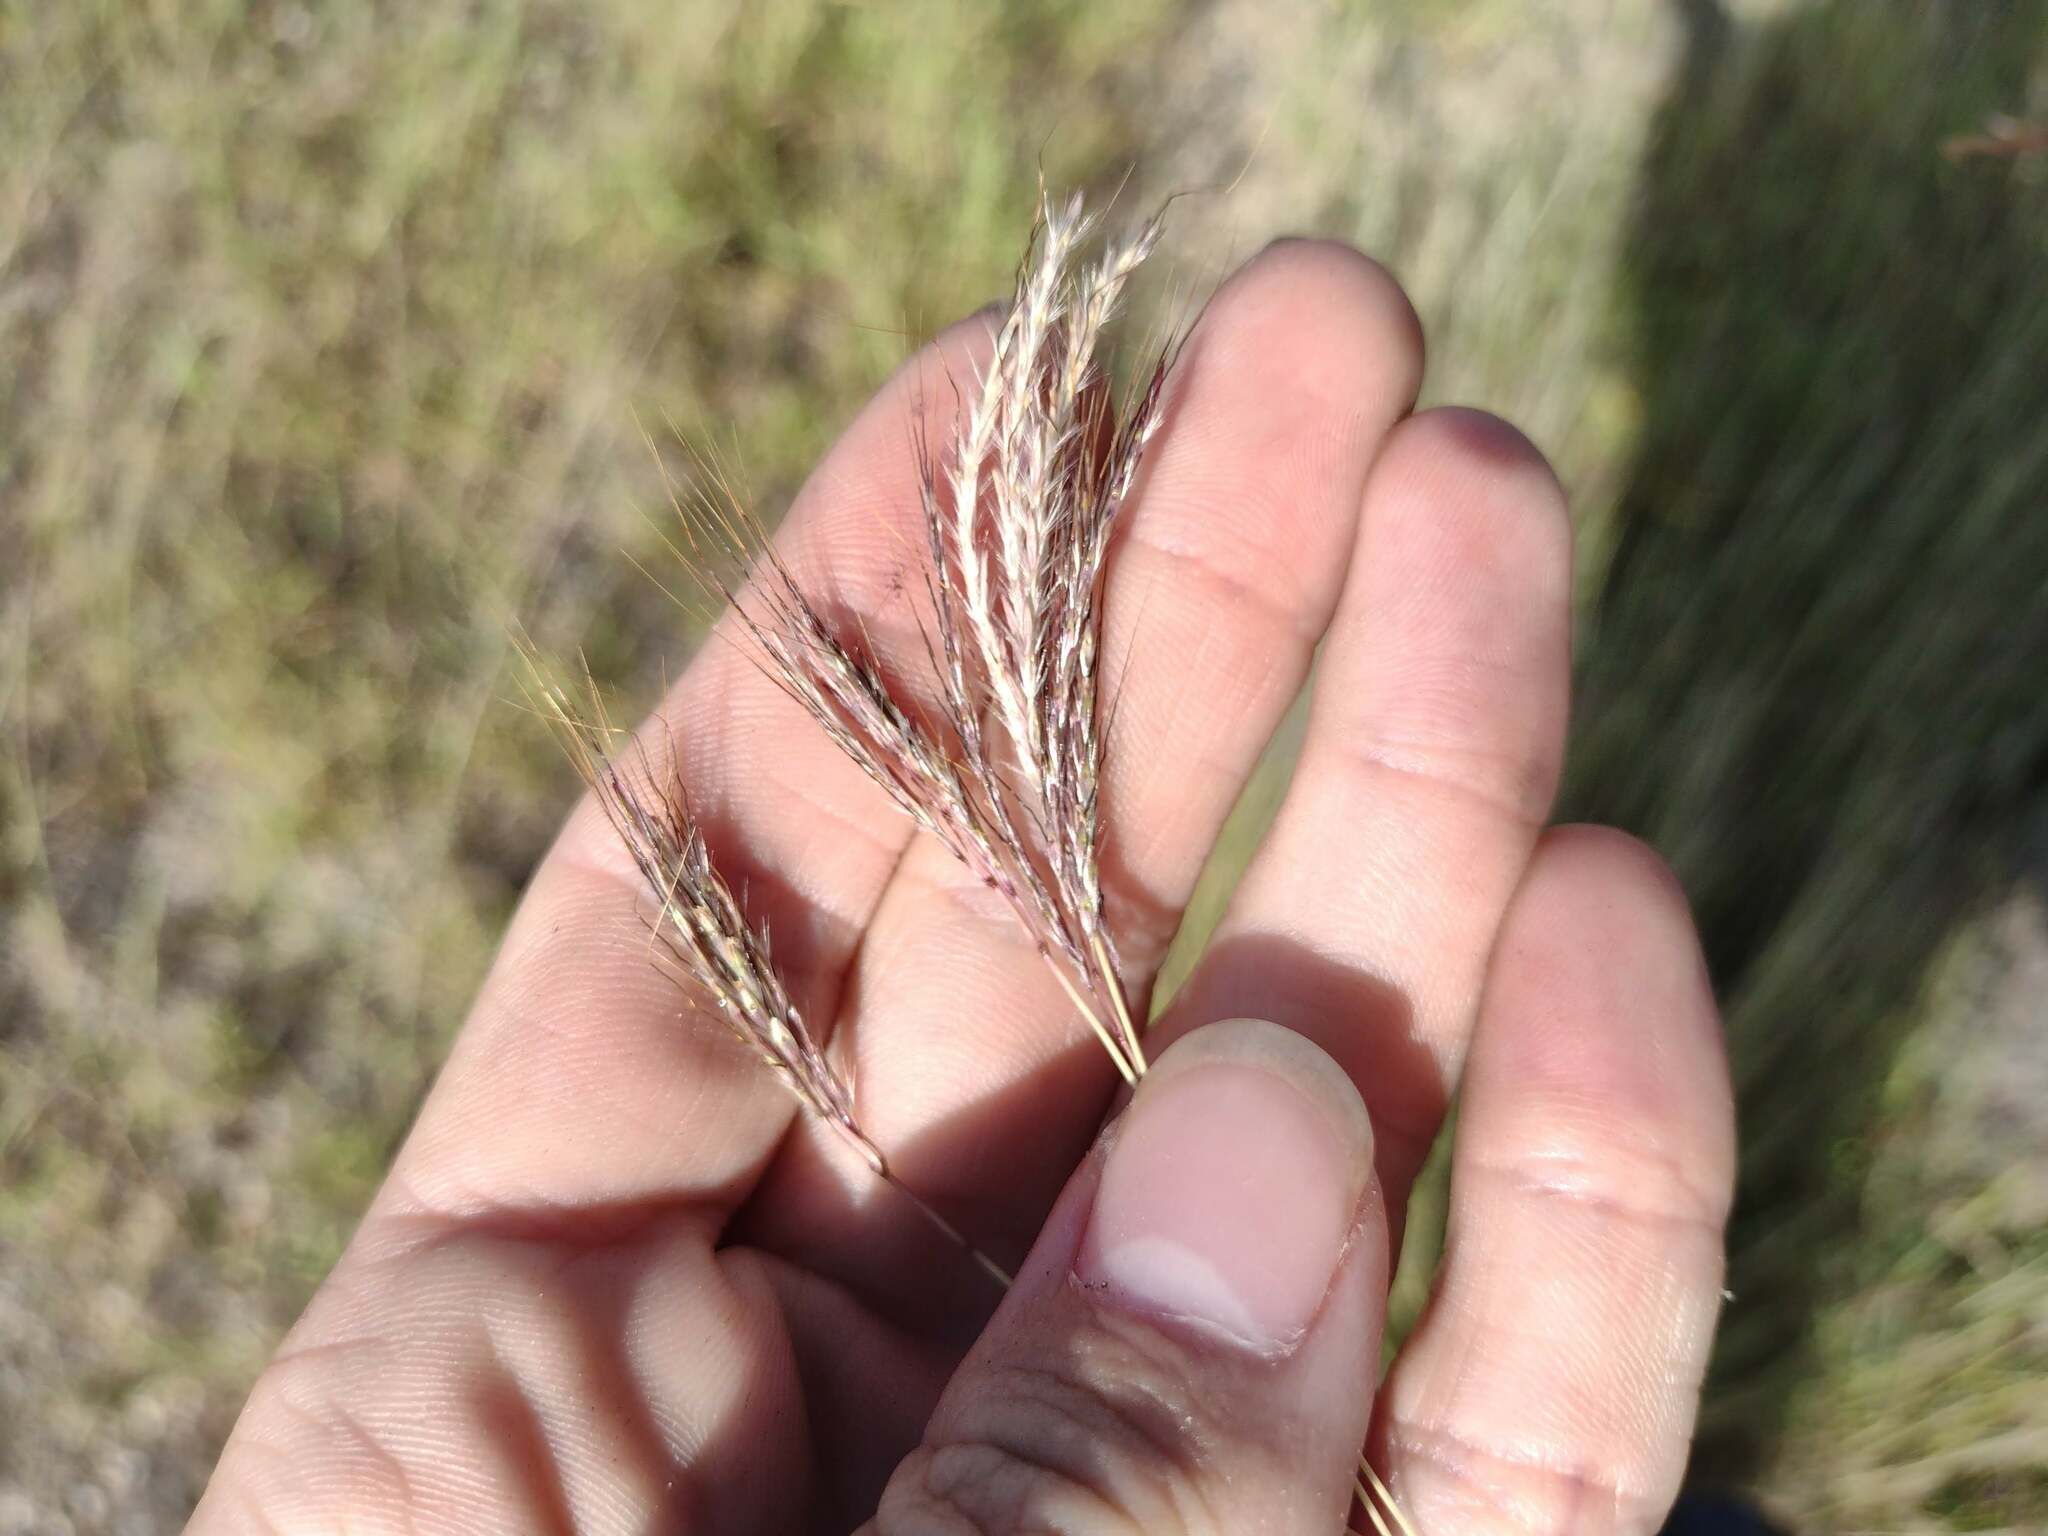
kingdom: Plantae
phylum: Tracheophyta
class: Liliopsida
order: Poales
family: Poaceae
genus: Bothriochloa
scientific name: Bothriochloa pertusa
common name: Pitted beardgrass
